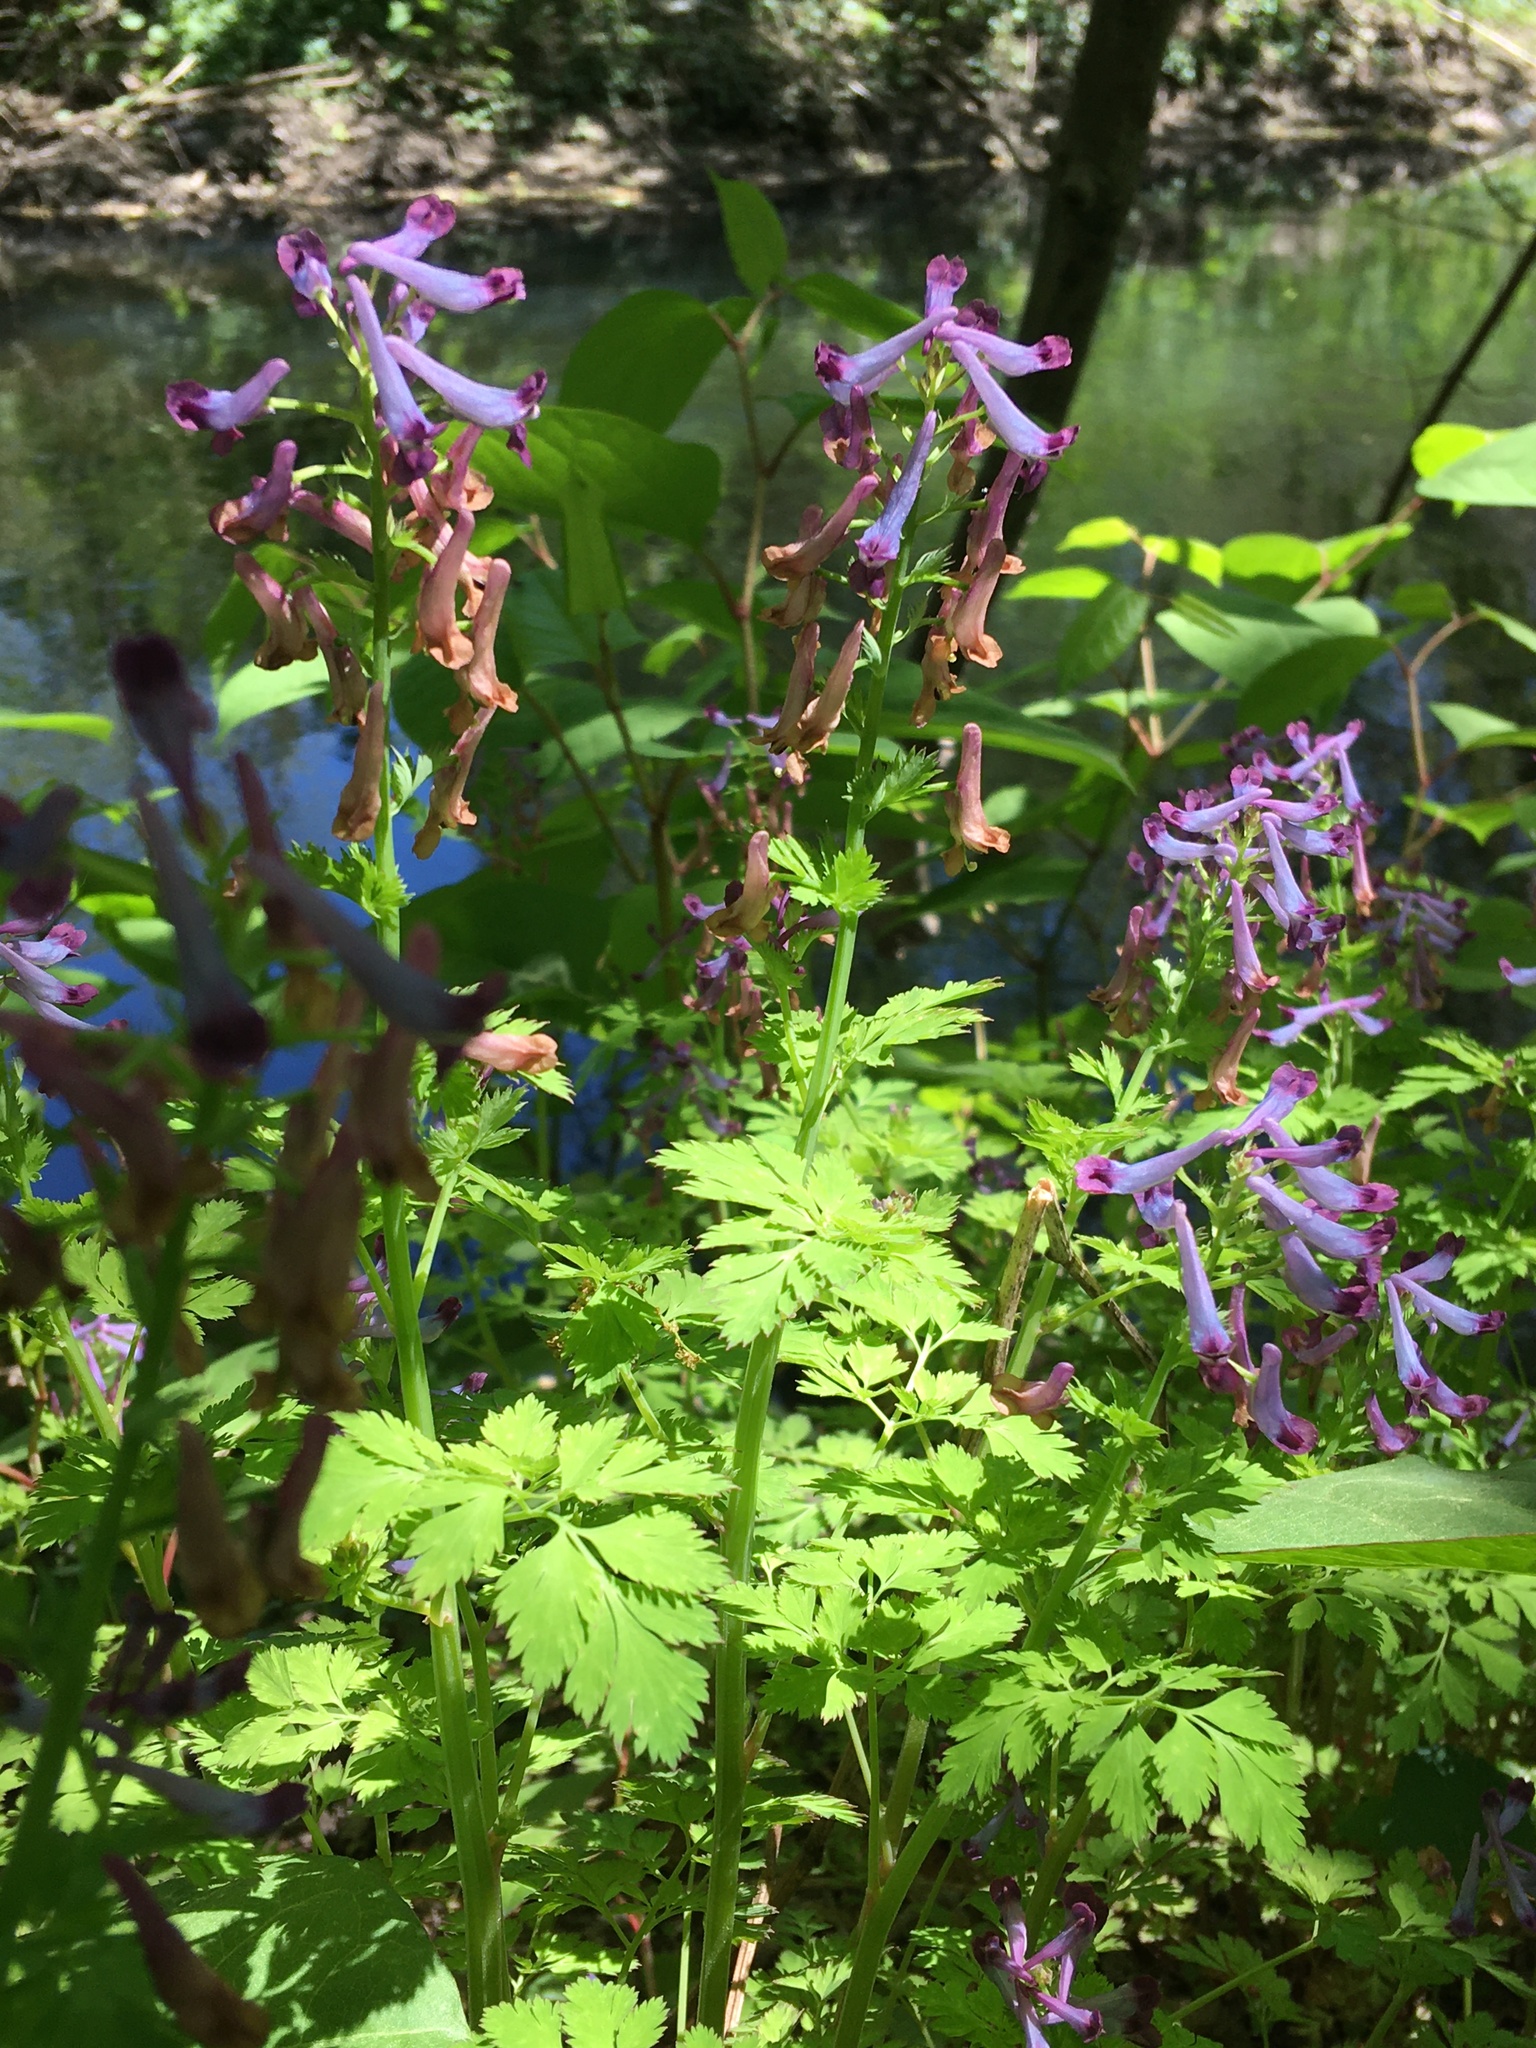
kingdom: Plantae
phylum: Tracheophyta
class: Magnoliopsida
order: Ranunculales
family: Papaveraceae
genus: Corydalis
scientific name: Corydalis incisa
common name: Incised fumewort
